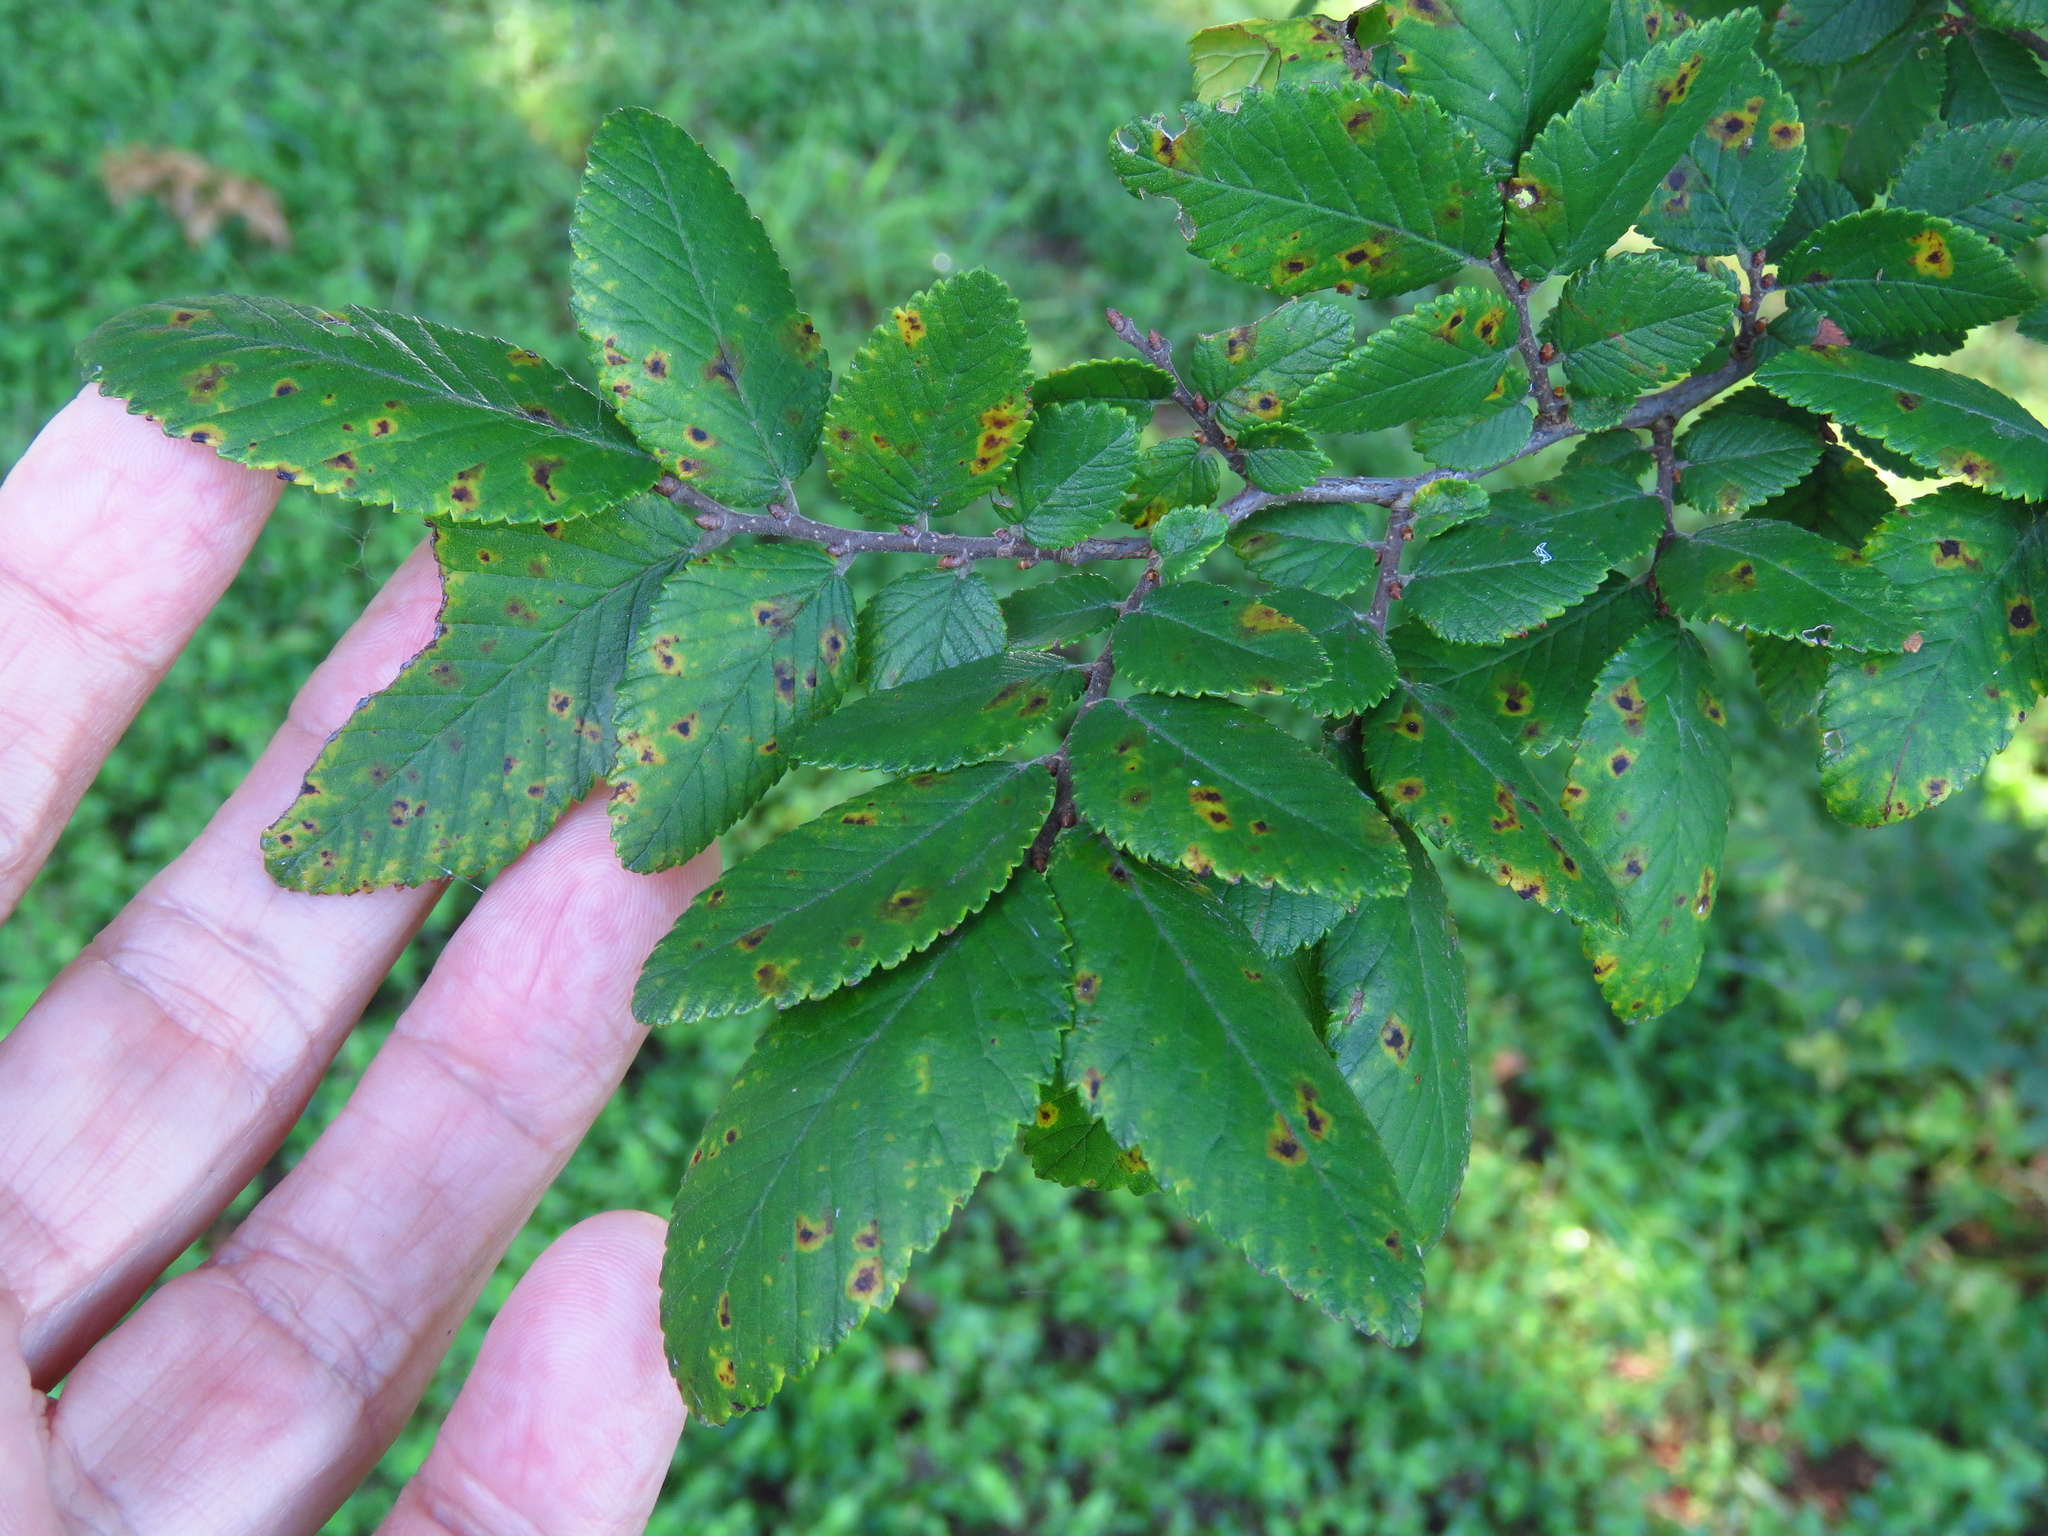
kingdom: Plantae
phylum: Tracheophyta
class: Magnoliopsida
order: Rosales
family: Ulmaceae
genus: Ulmus
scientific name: Ulmus crassifolia
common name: Basket elm
